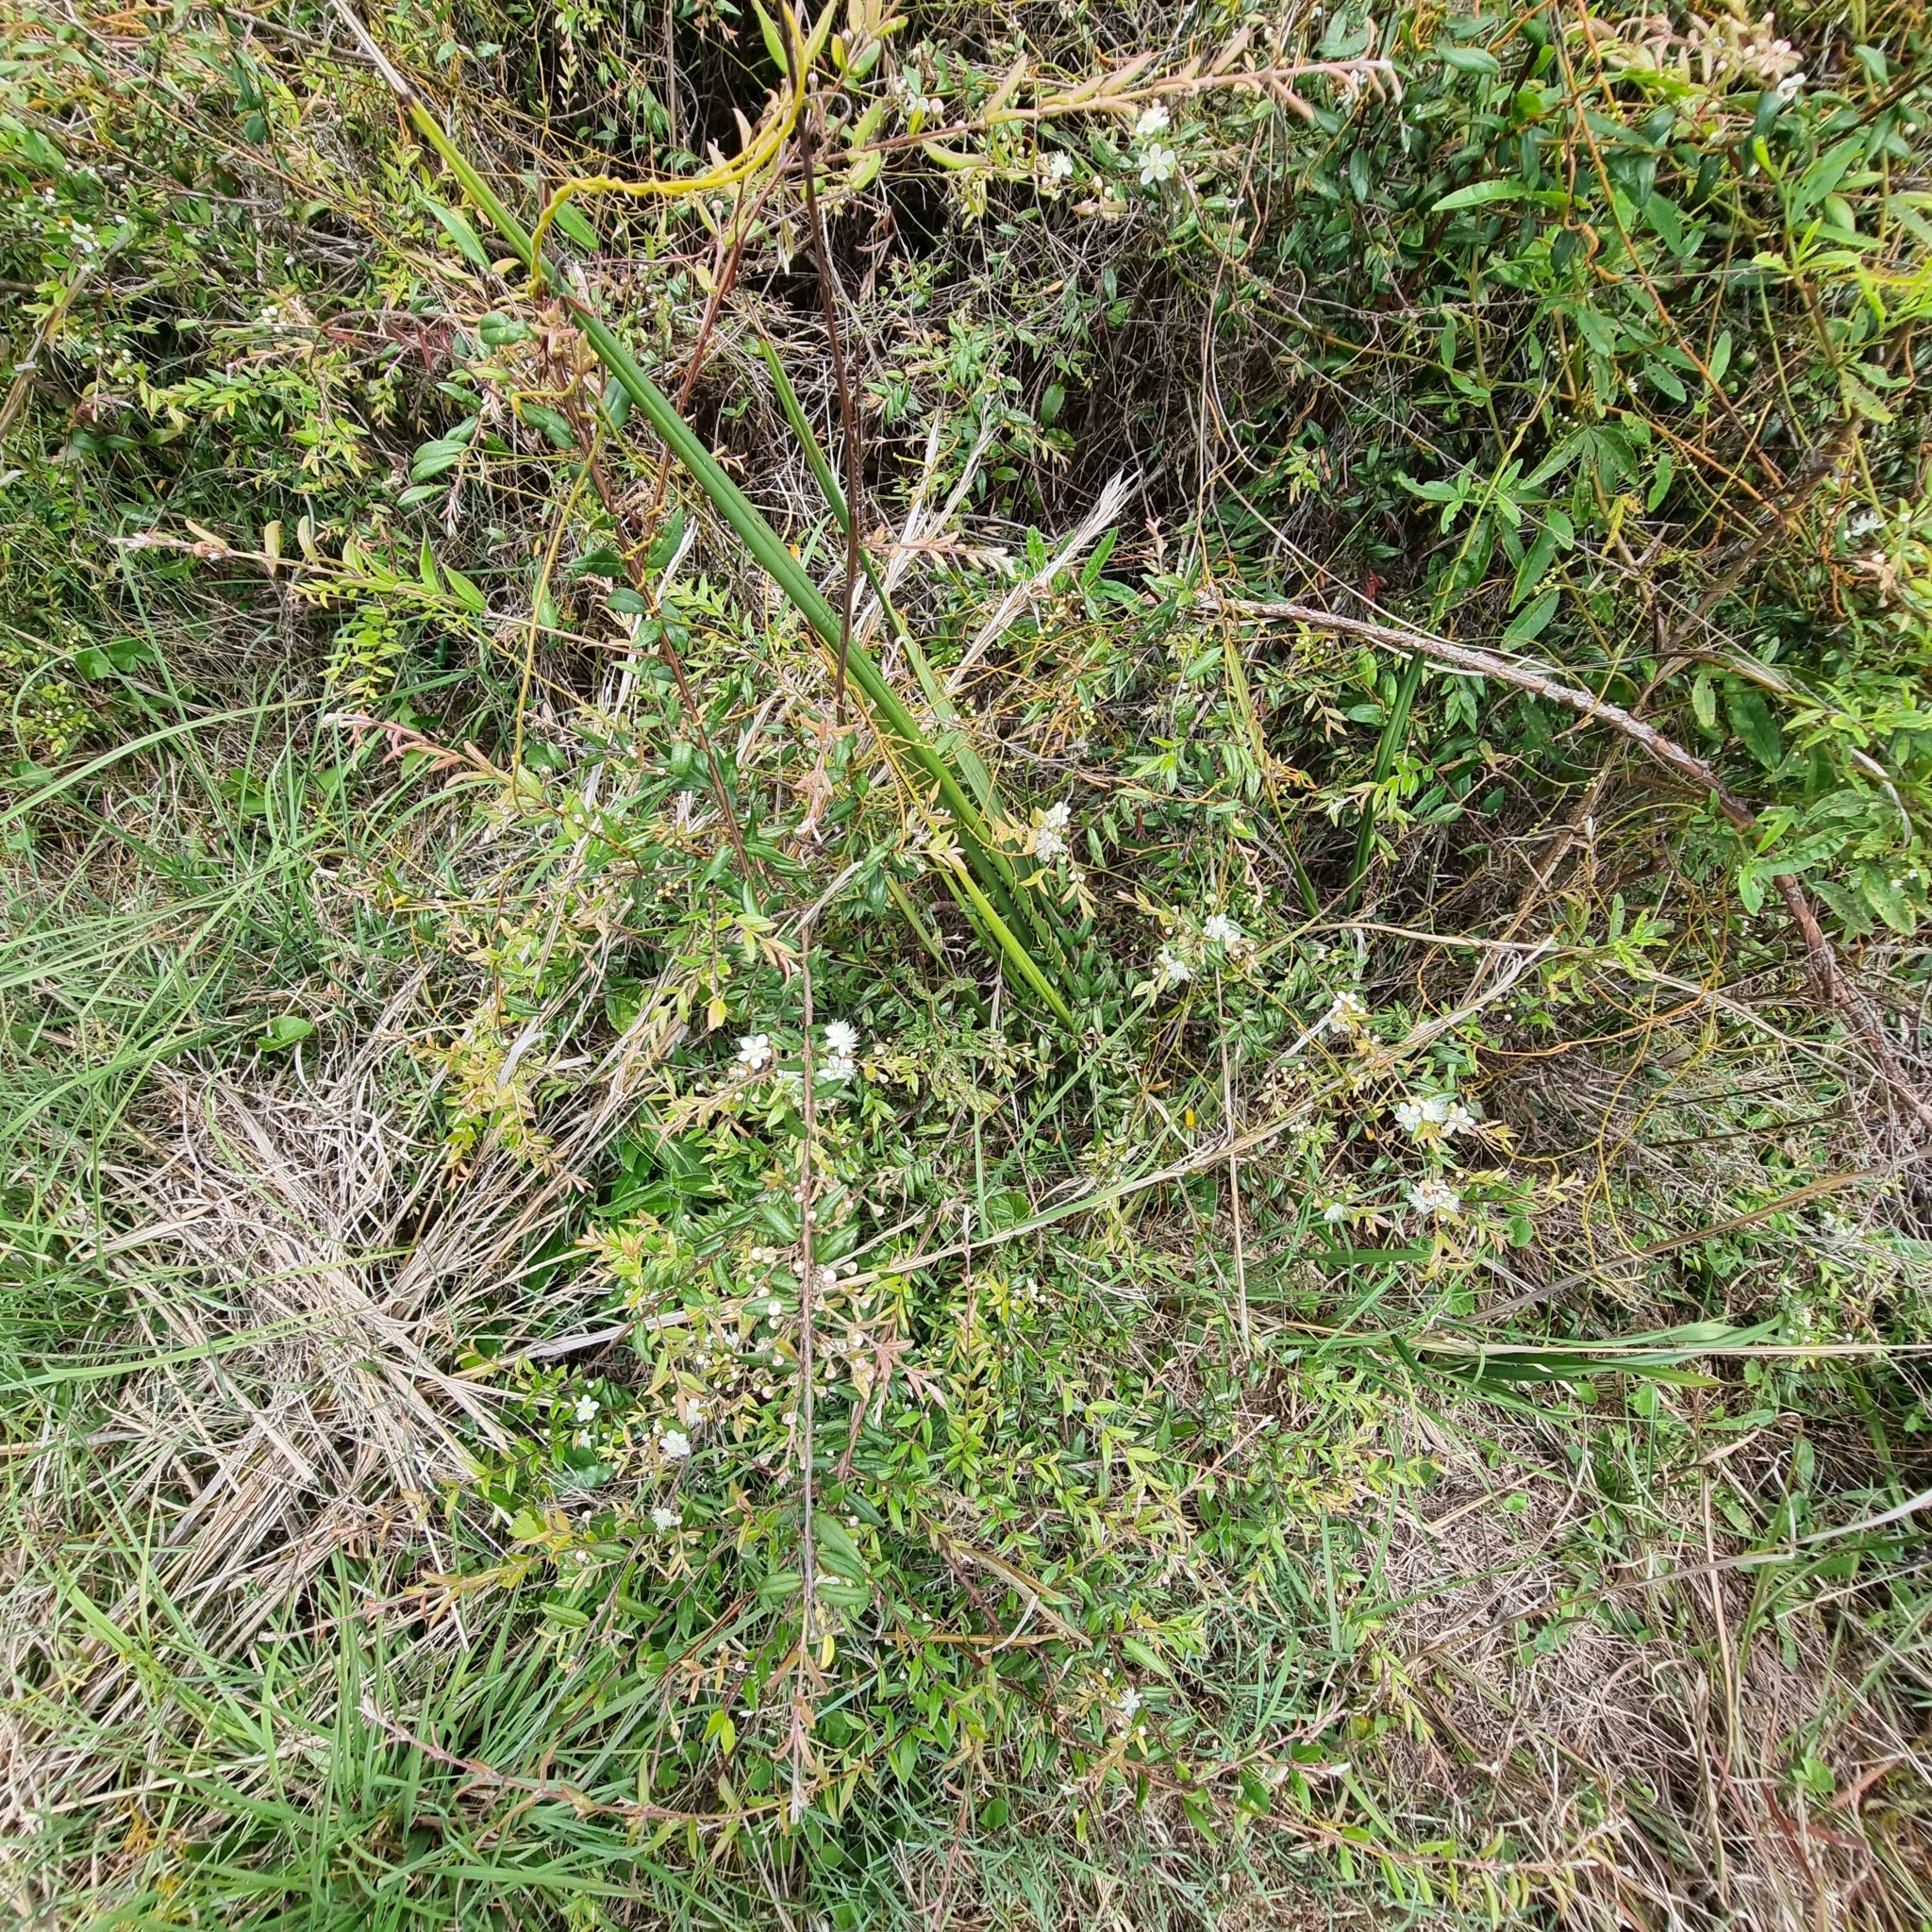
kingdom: Plantae
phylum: Tracheophyta
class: Magnoliopsida
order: Myrtales
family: Myrtaceae
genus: Austromyrtus
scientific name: Austromyrtus dulcis
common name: Migden-berry
